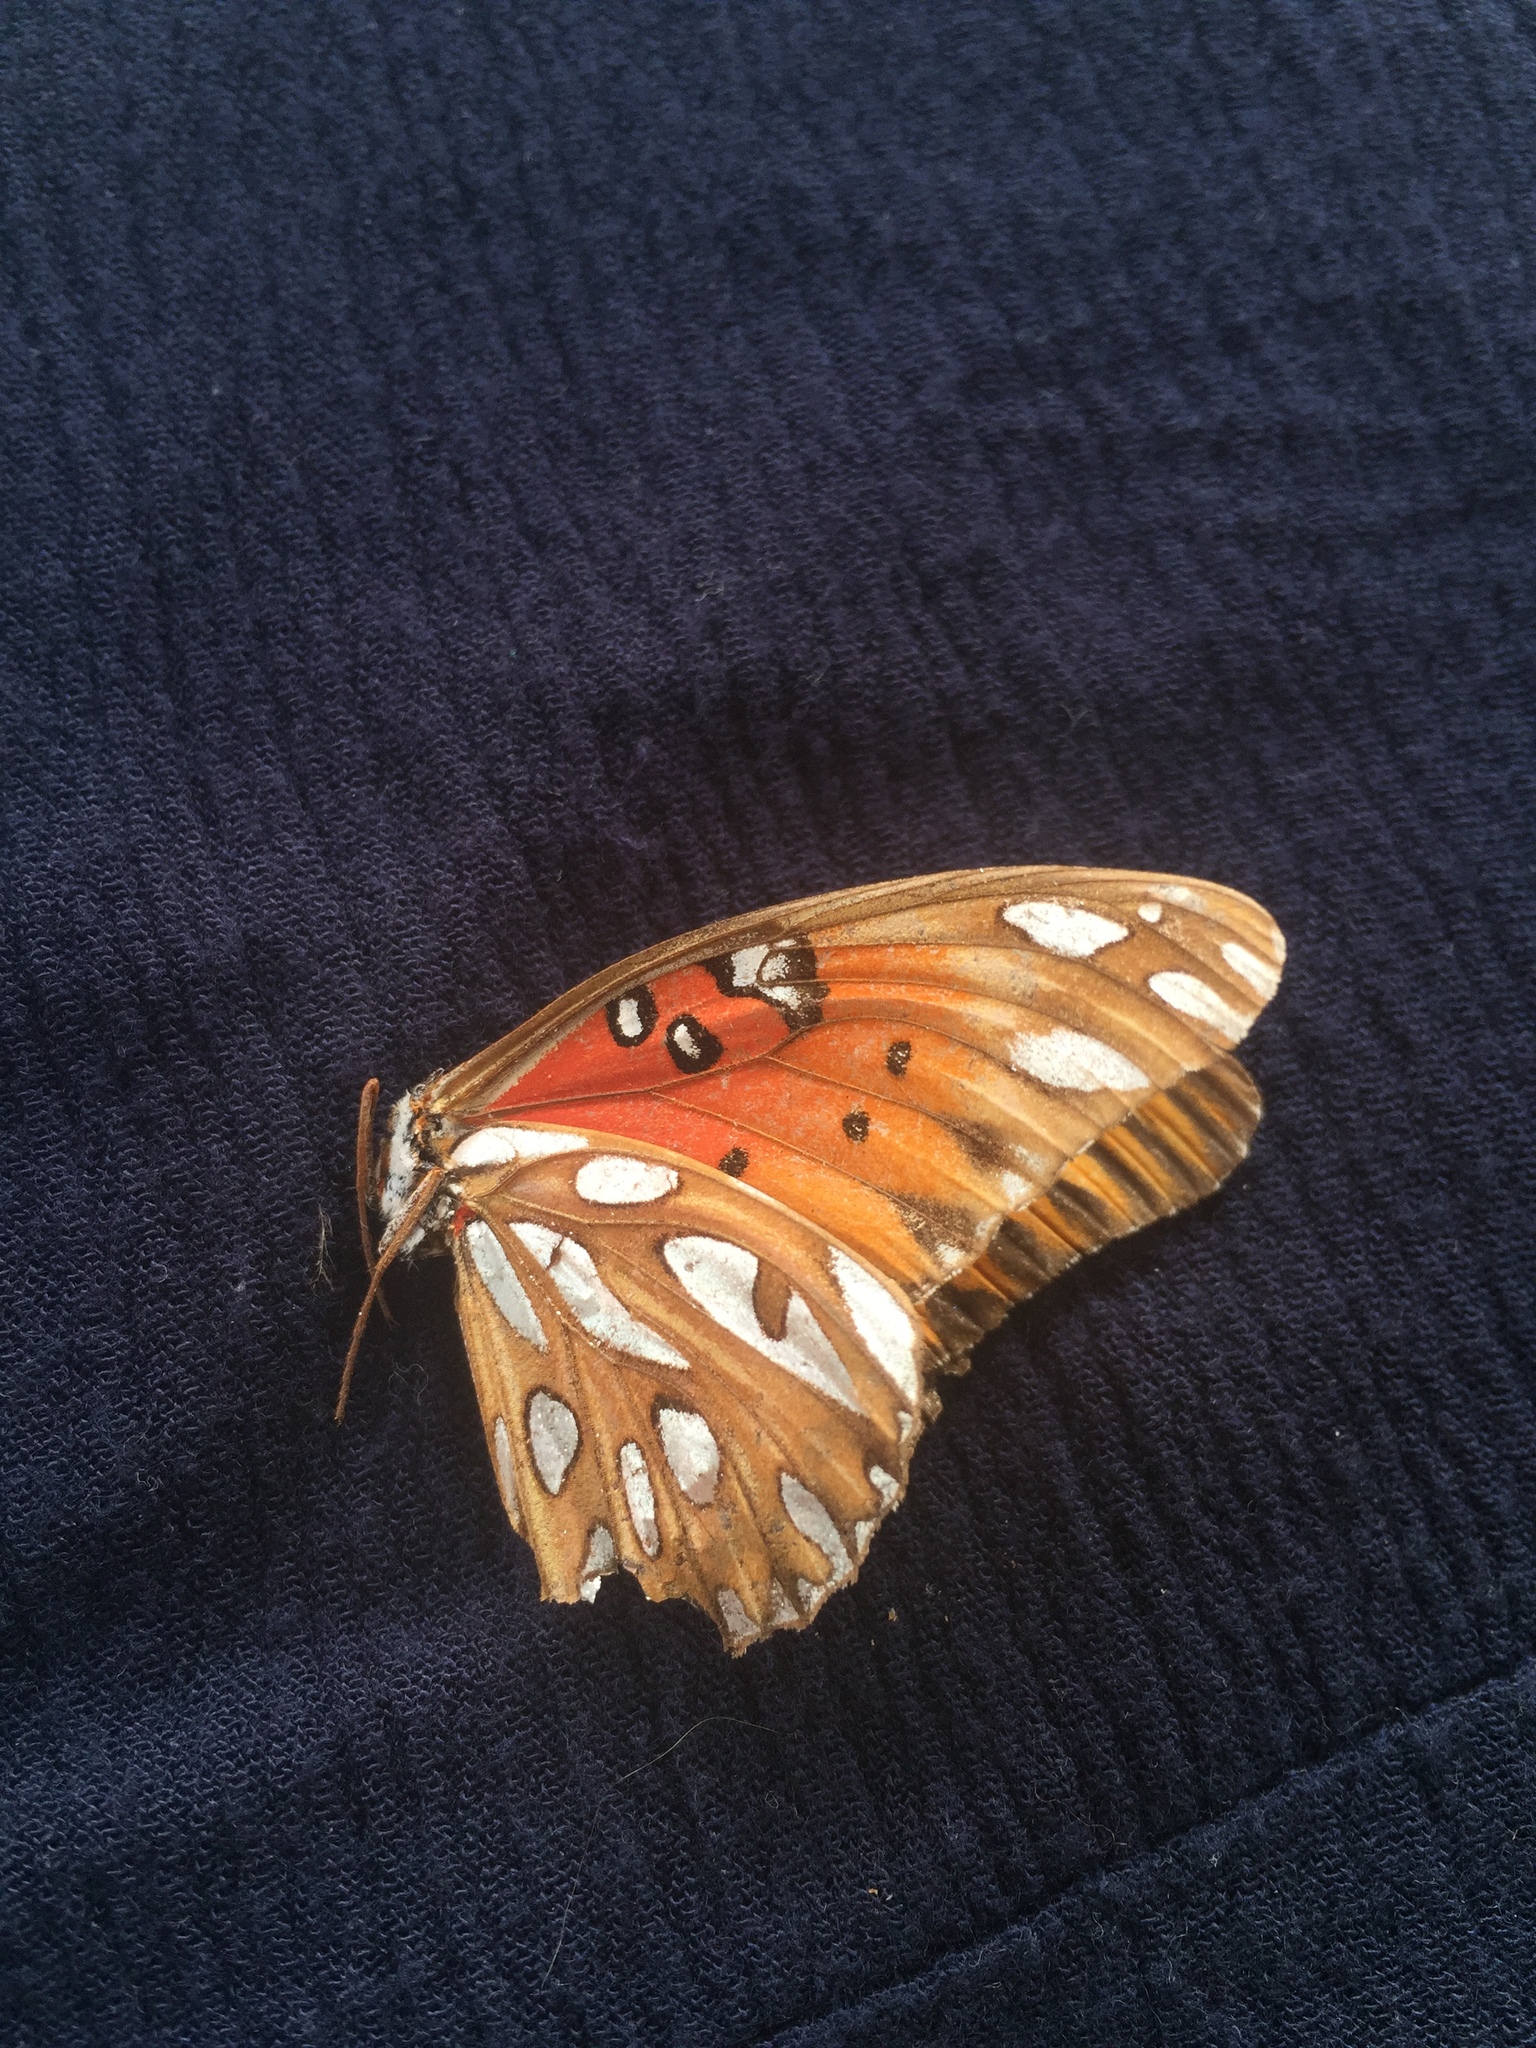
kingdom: Animalia
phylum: Arthropoda
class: Insecta
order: Lepidoptera
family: Nymphalidae
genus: Dione
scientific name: Dione vanillae
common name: Gulf fritillary
